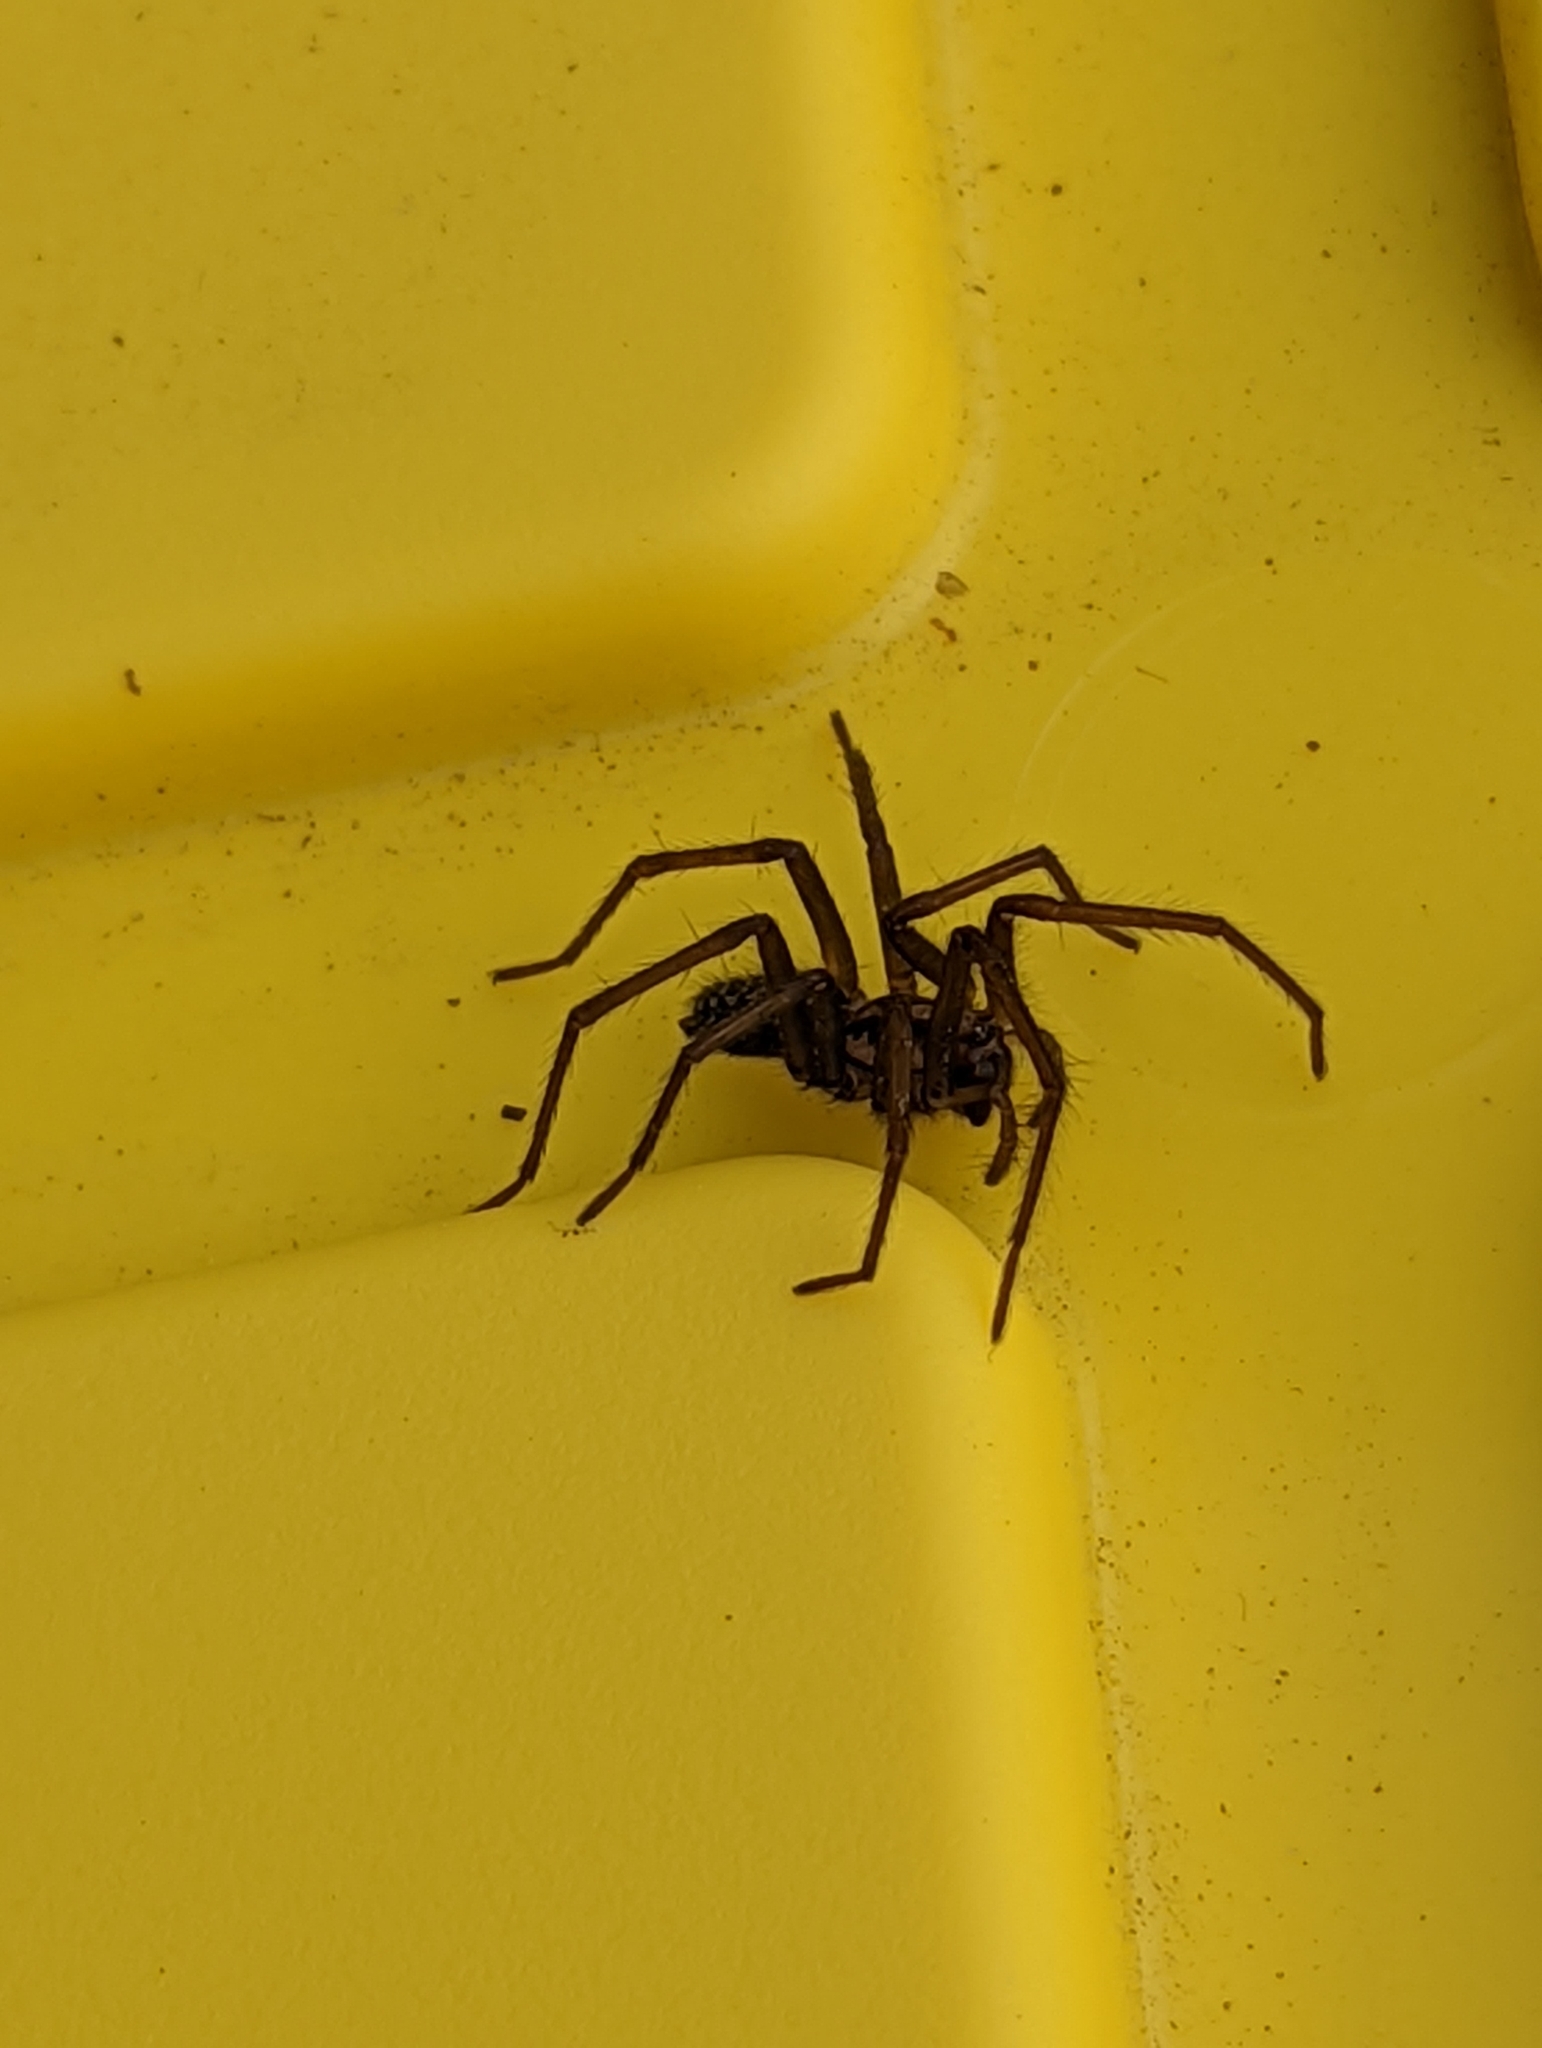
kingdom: Animalia
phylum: Arthropoda
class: Arachnida
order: Araneae
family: Agelenidae
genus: Eratigena
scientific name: Eratigena duellica
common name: Giant house spider
